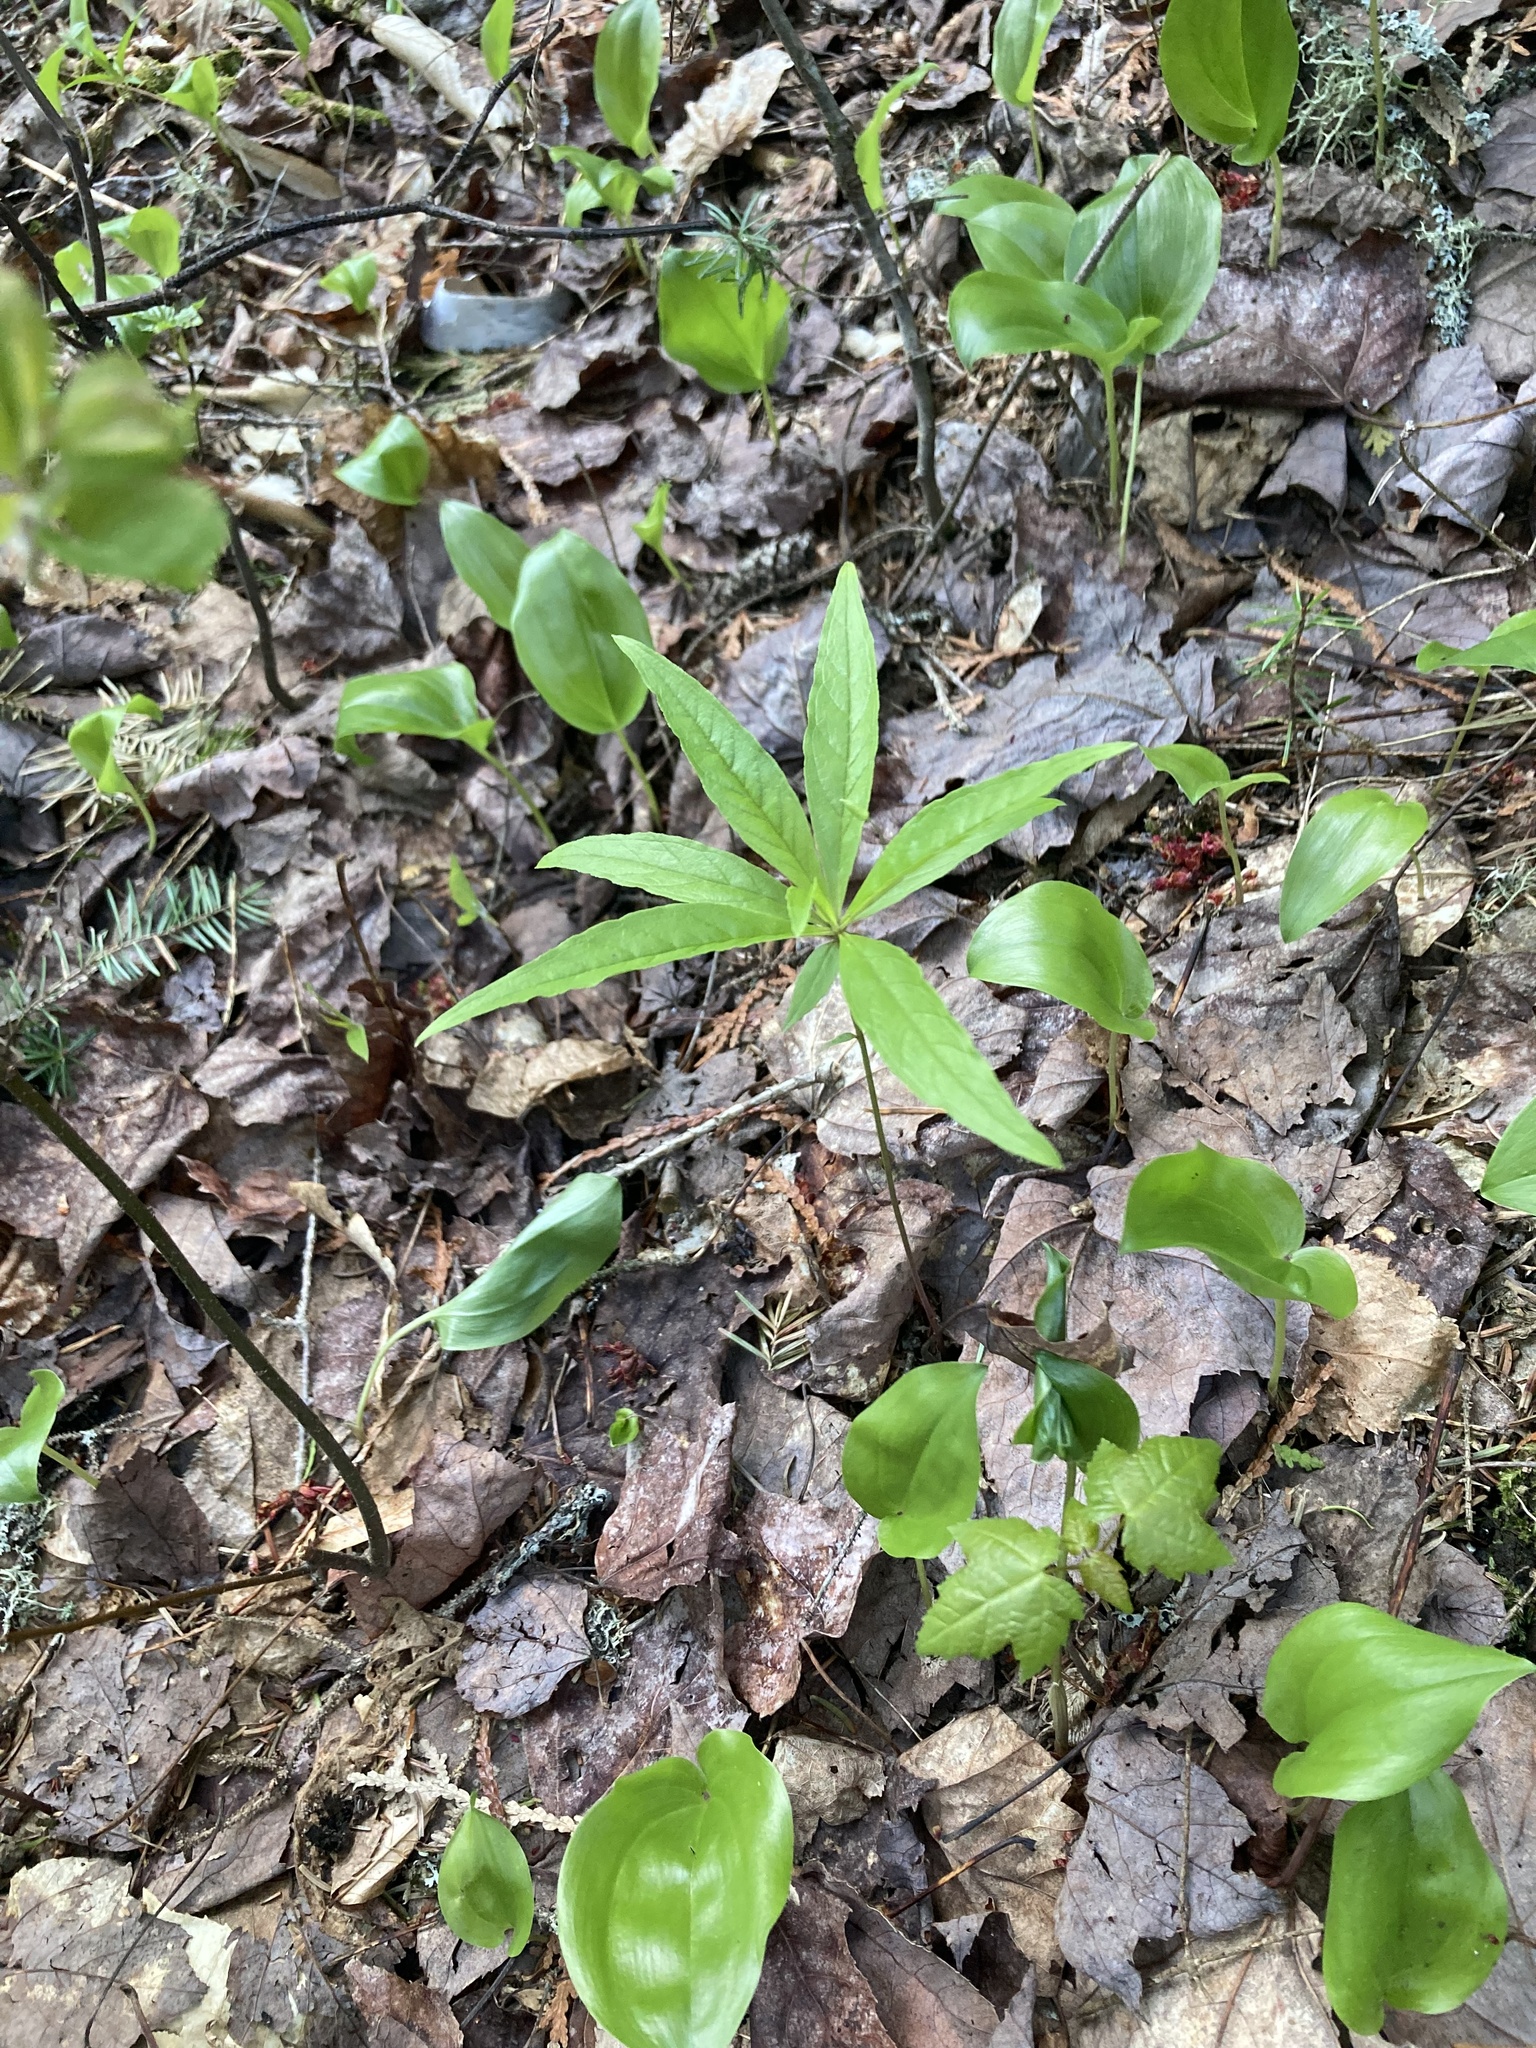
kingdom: Plantae
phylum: Tracheophyta
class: Magnoliopsida
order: Ericales
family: Primulaceae
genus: Lysimachia
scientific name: Lysimachia borealis
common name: American starflower
